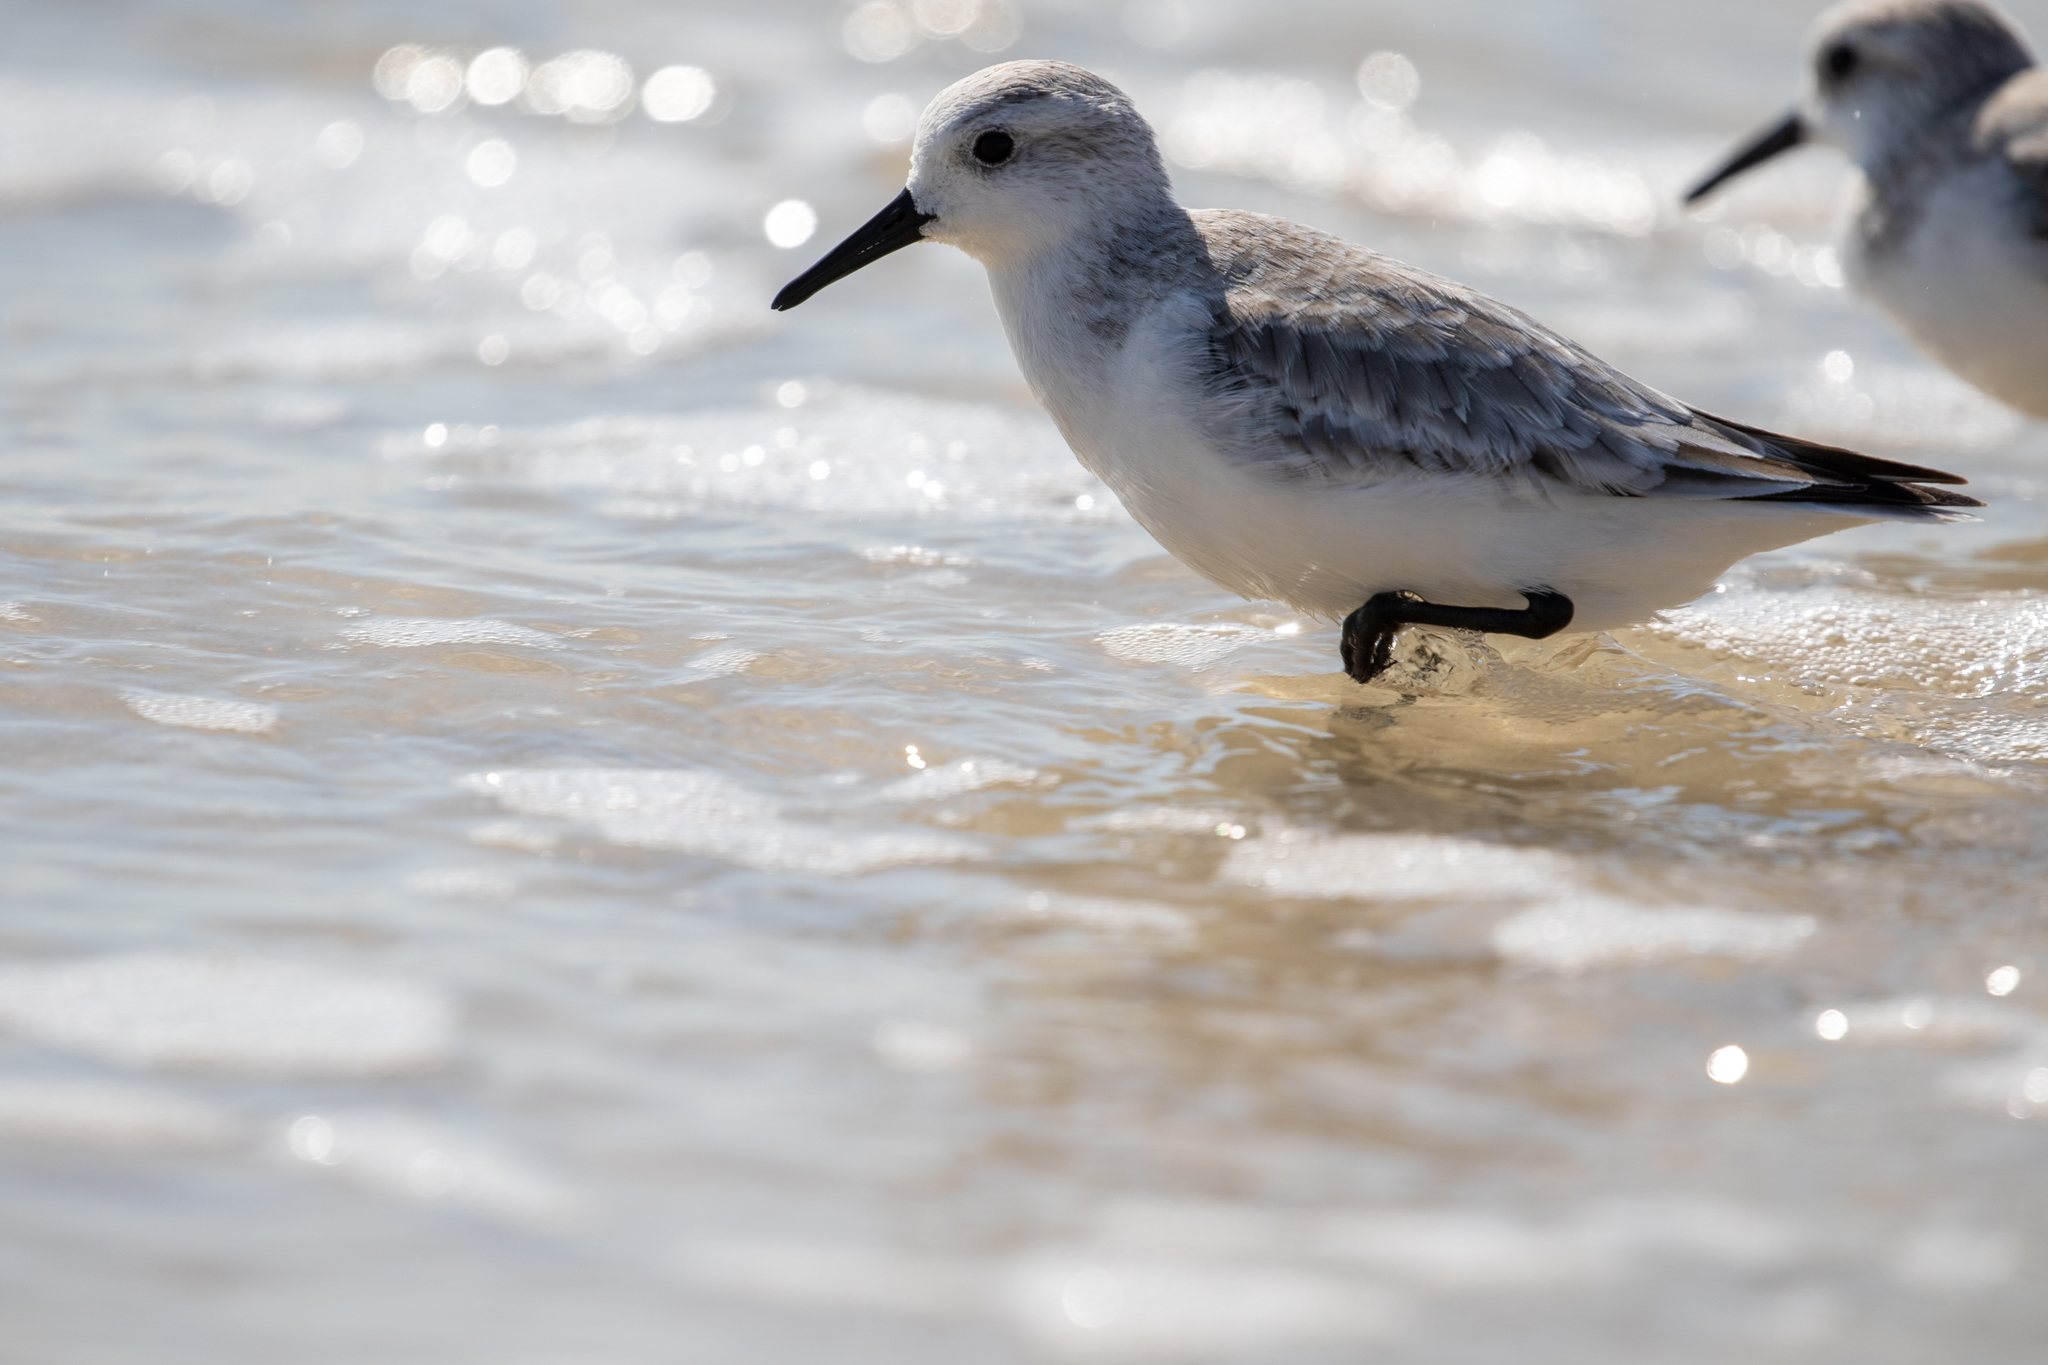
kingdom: Animalia
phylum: Chordata
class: Aves
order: Charadriiformes
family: Scolopacidae
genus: Calidris
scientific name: Calidris alba
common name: Sanderling
